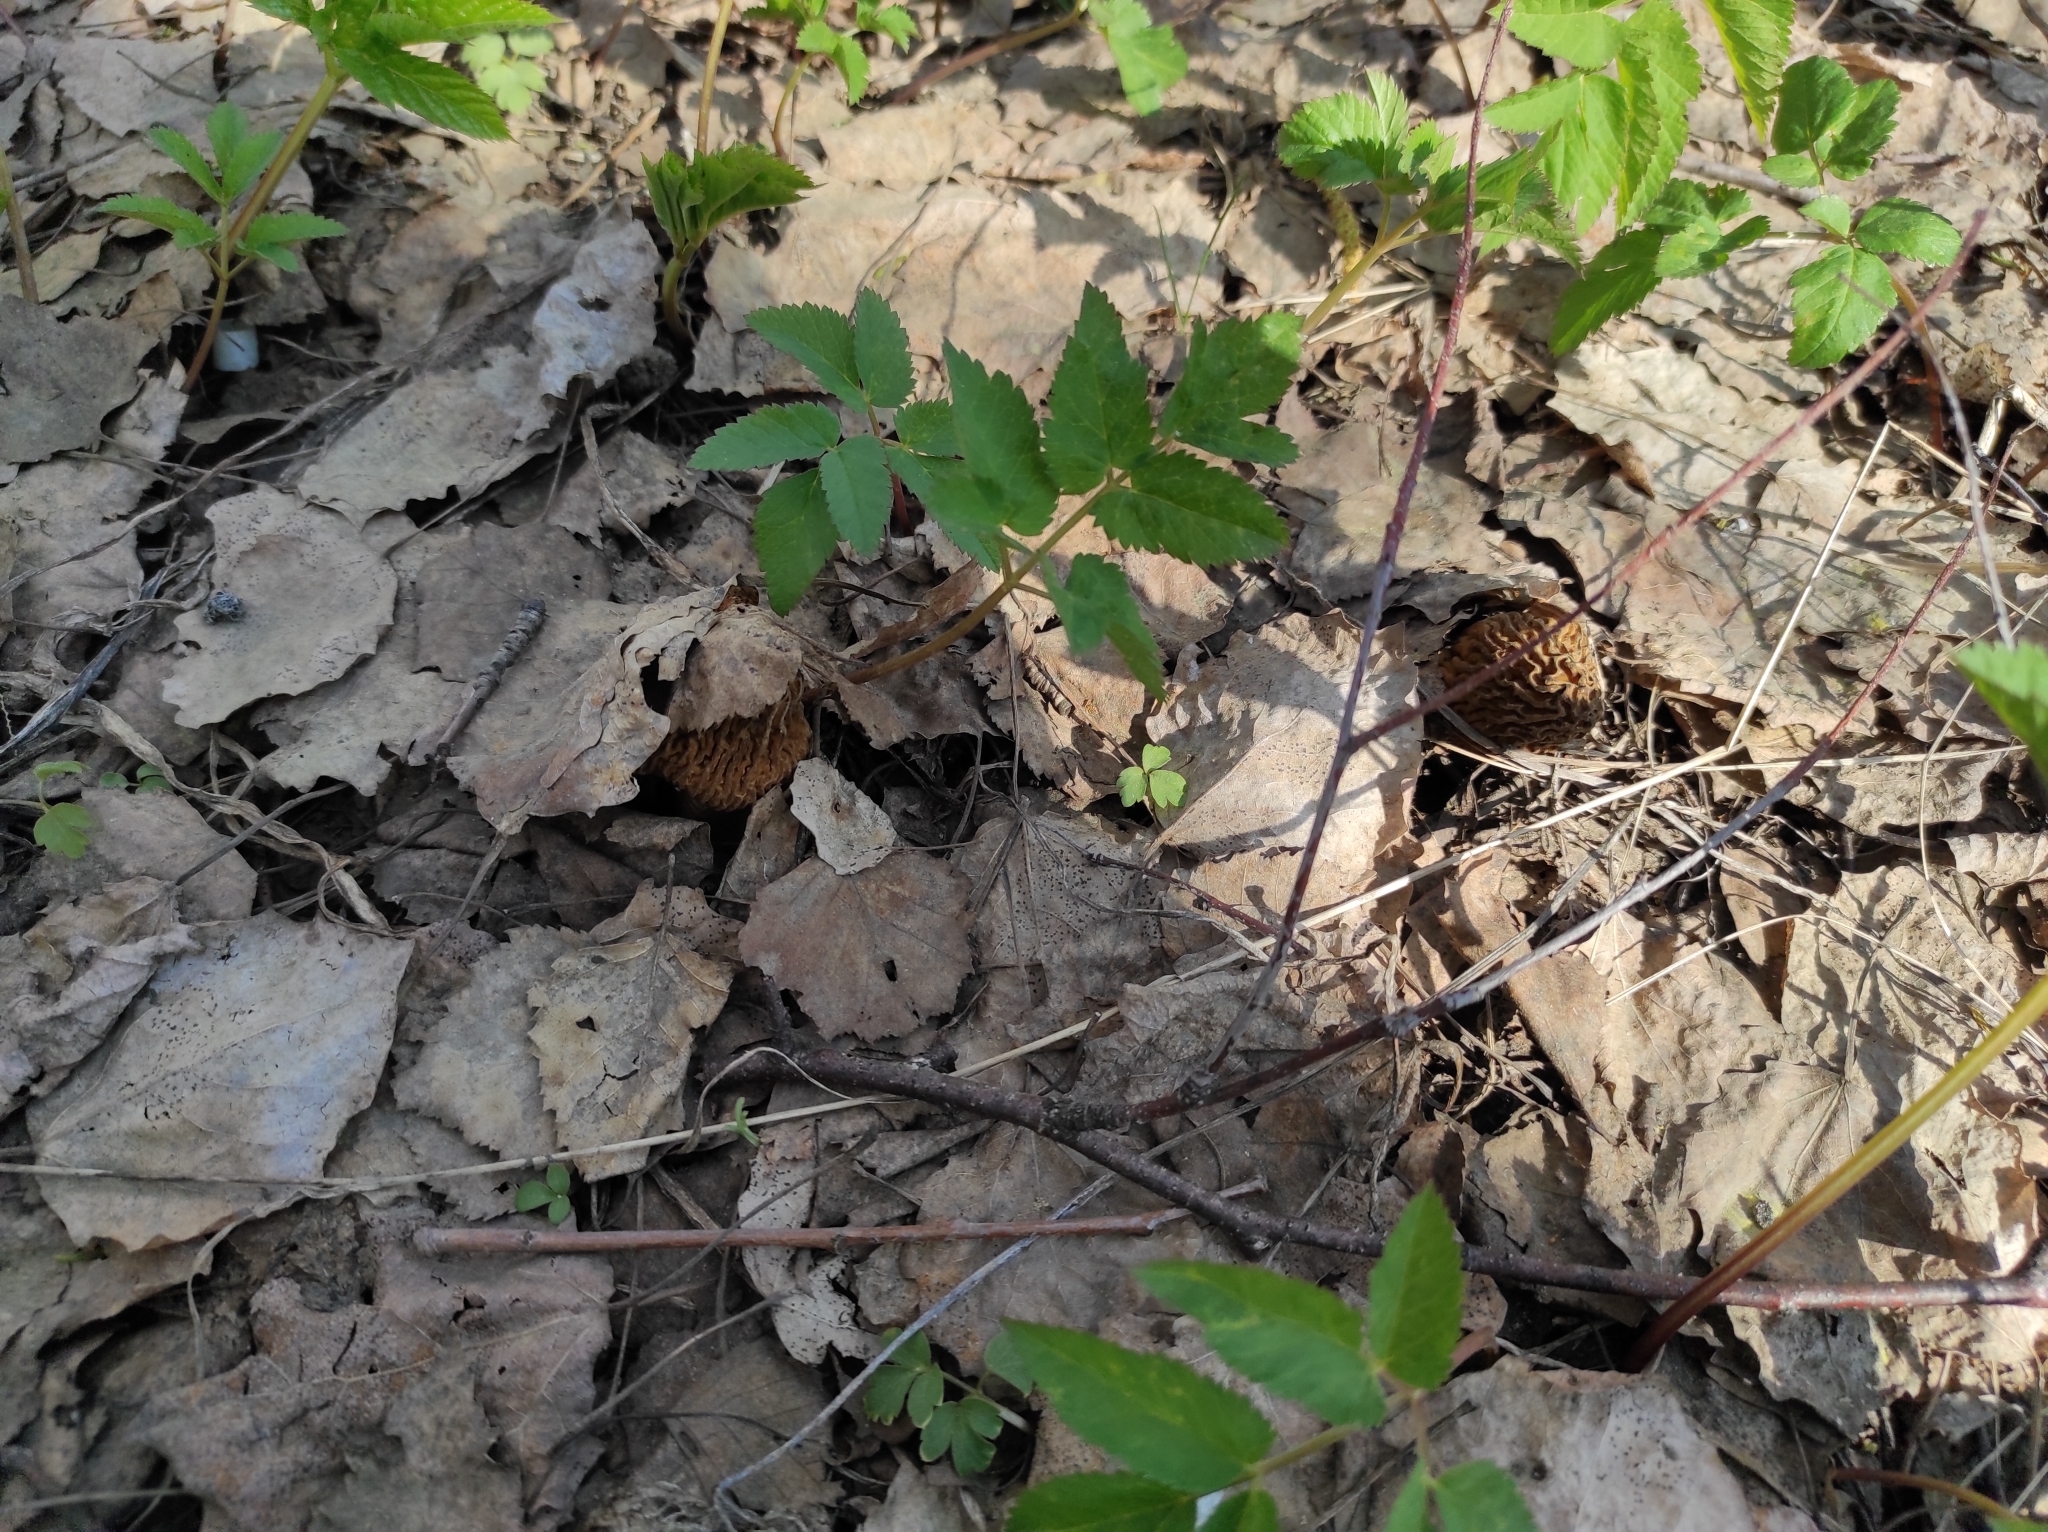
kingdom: Fungi
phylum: Ascomycota
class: Pezizomycetes
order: Pezizales
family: Morchellaceae
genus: Verpa
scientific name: Verpa bohemica
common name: Wrinkled thimble morel
